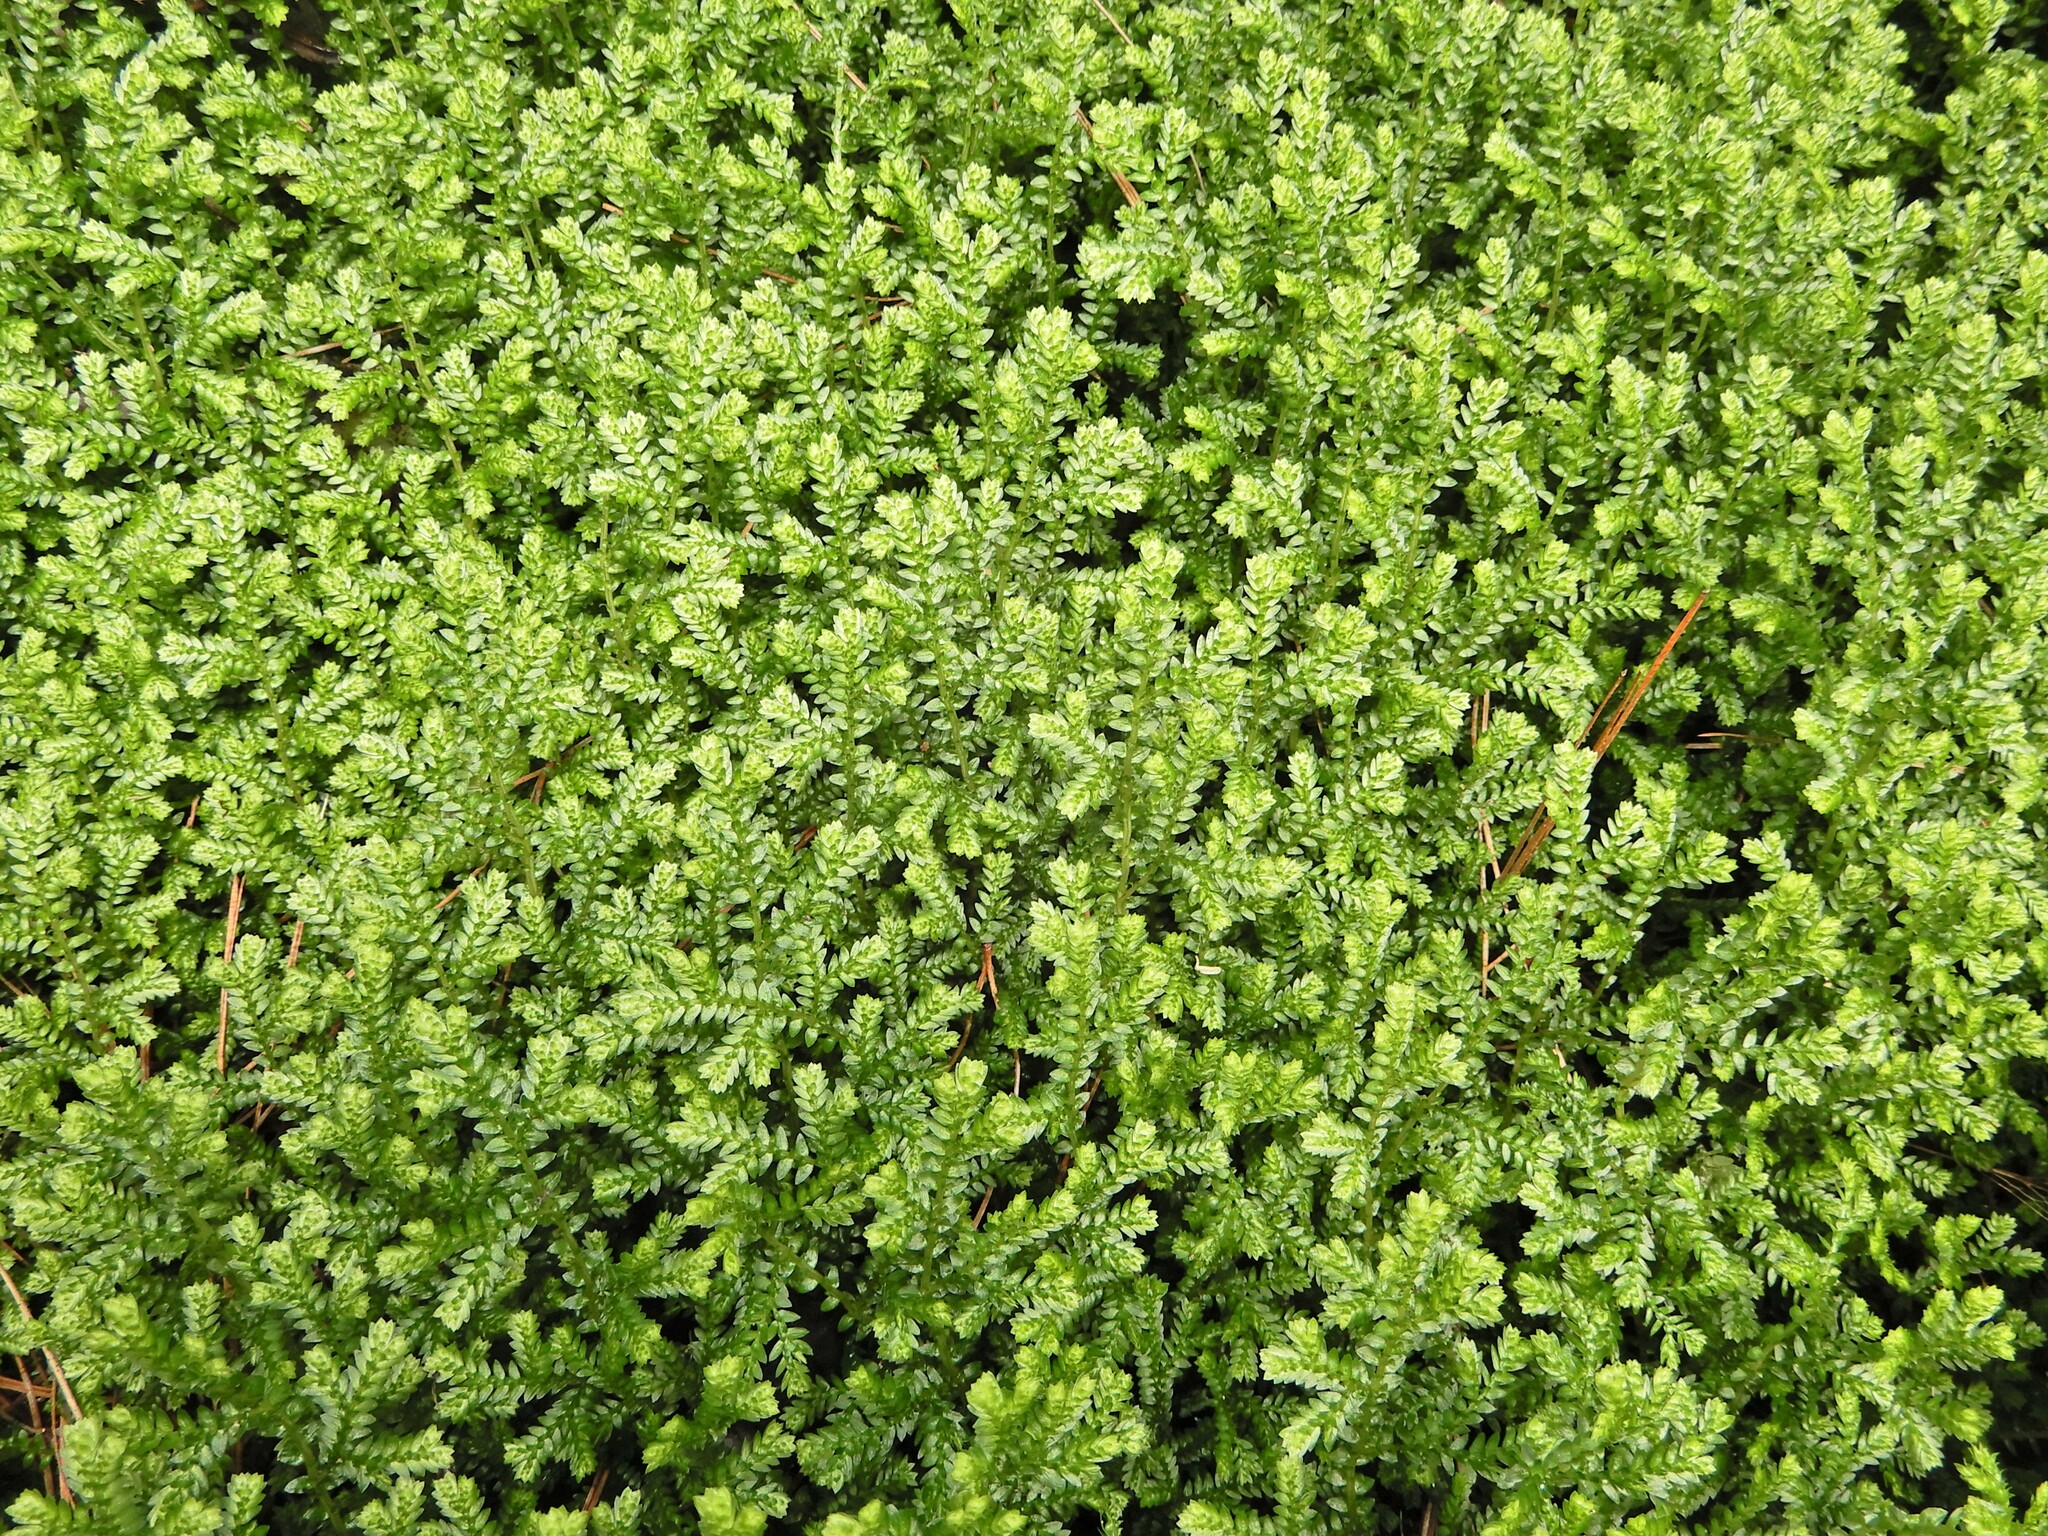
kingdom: Plantae
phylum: Tracheophyta
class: Lycopodiopsida
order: Selaginellales
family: Selaginellaceae
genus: Selaginella
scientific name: Selaginella kraussiana
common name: Krauss' spikemoss
